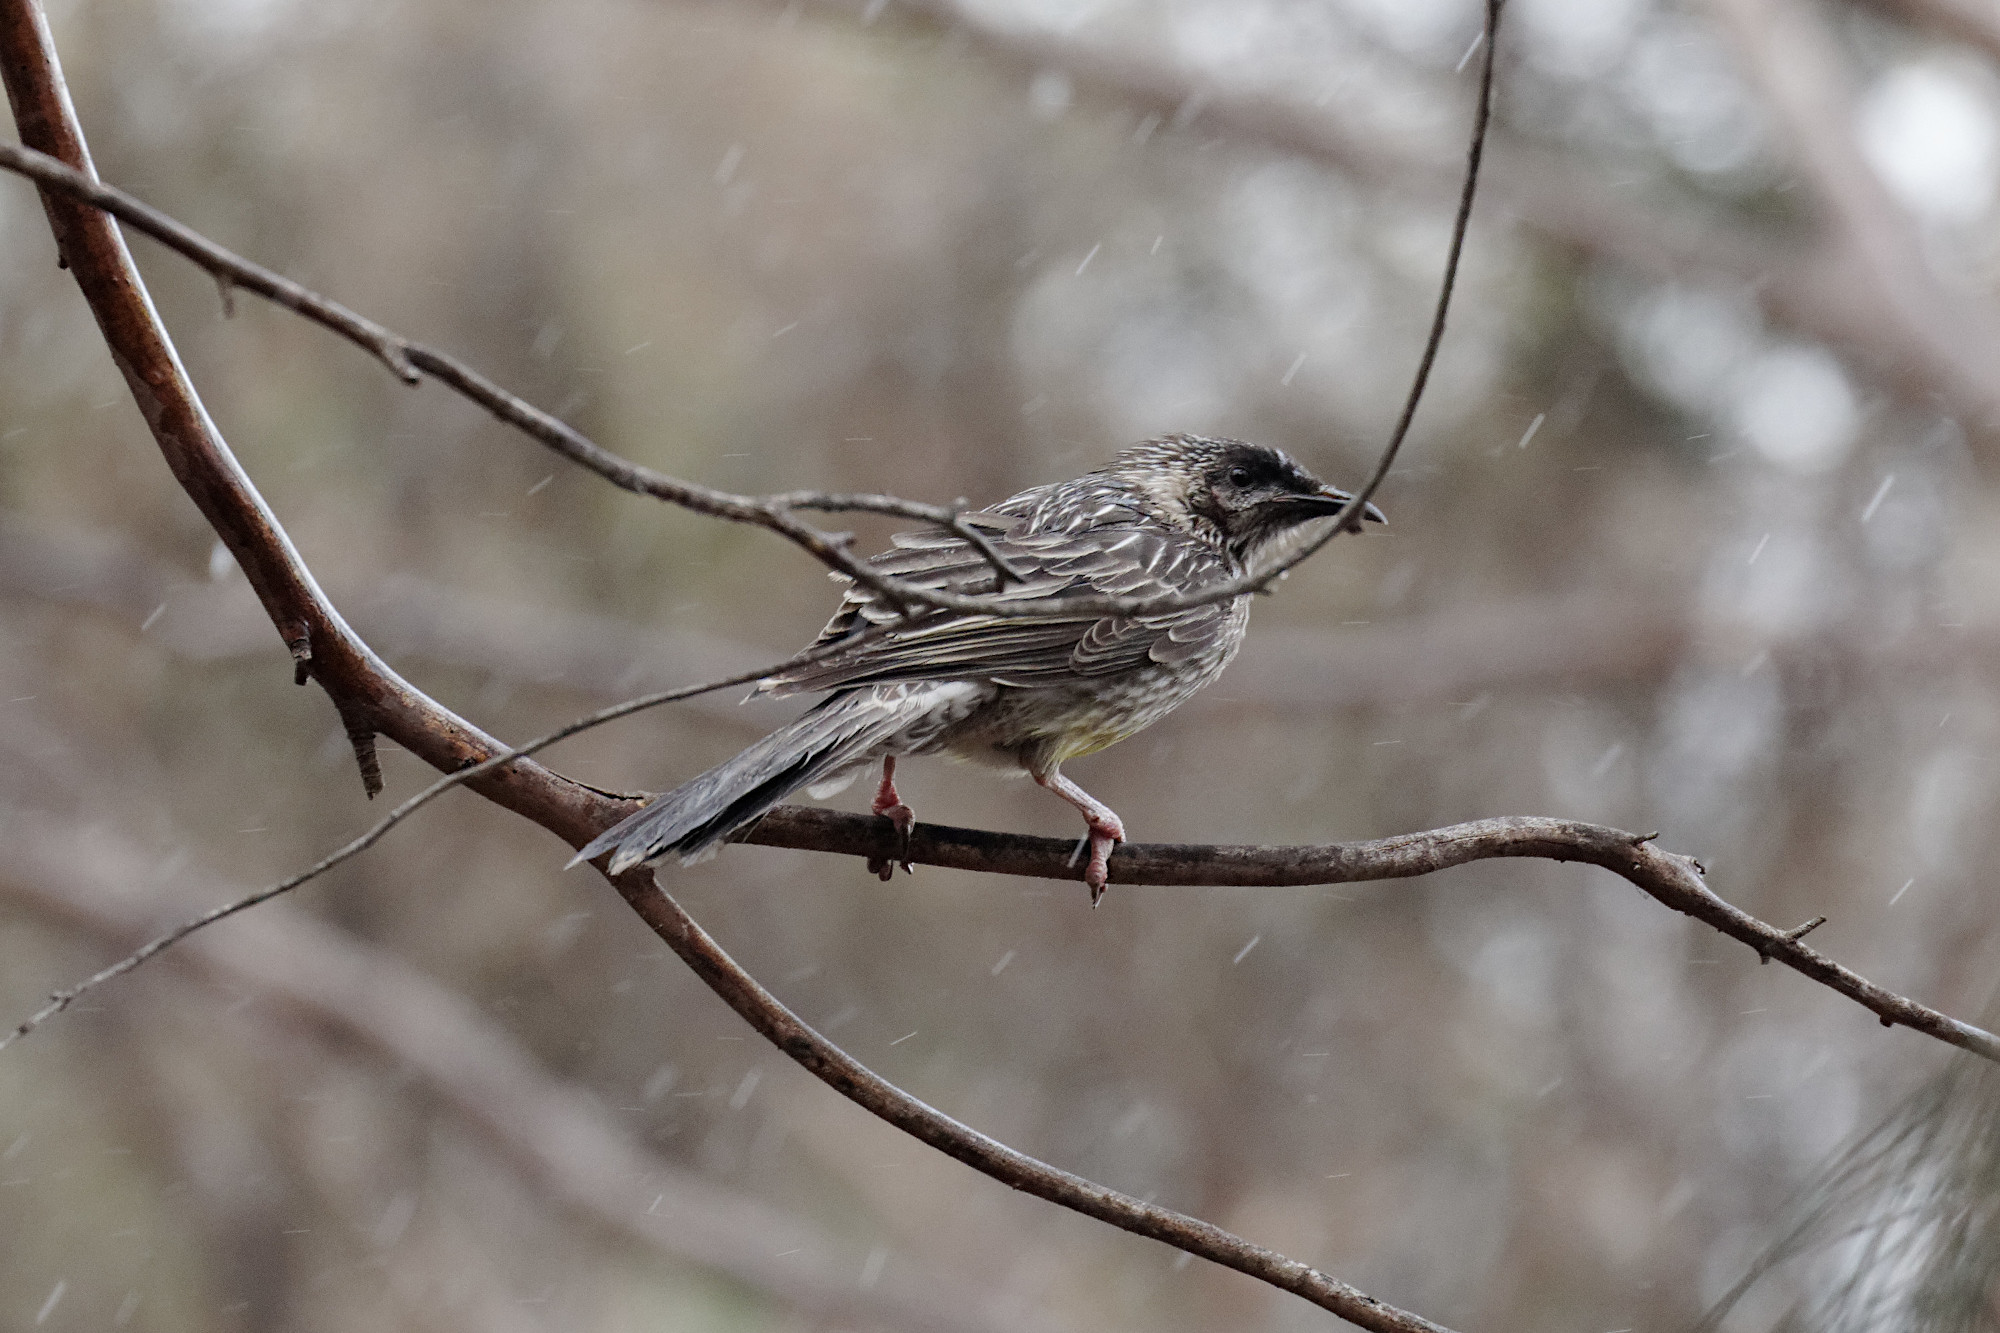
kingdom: Animalia
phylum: Chordata
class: Aves
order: Passeriformes
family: Meliphagidae
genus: Anthochaera
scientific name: Anthochaera carunculata
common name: Red wattlebird
